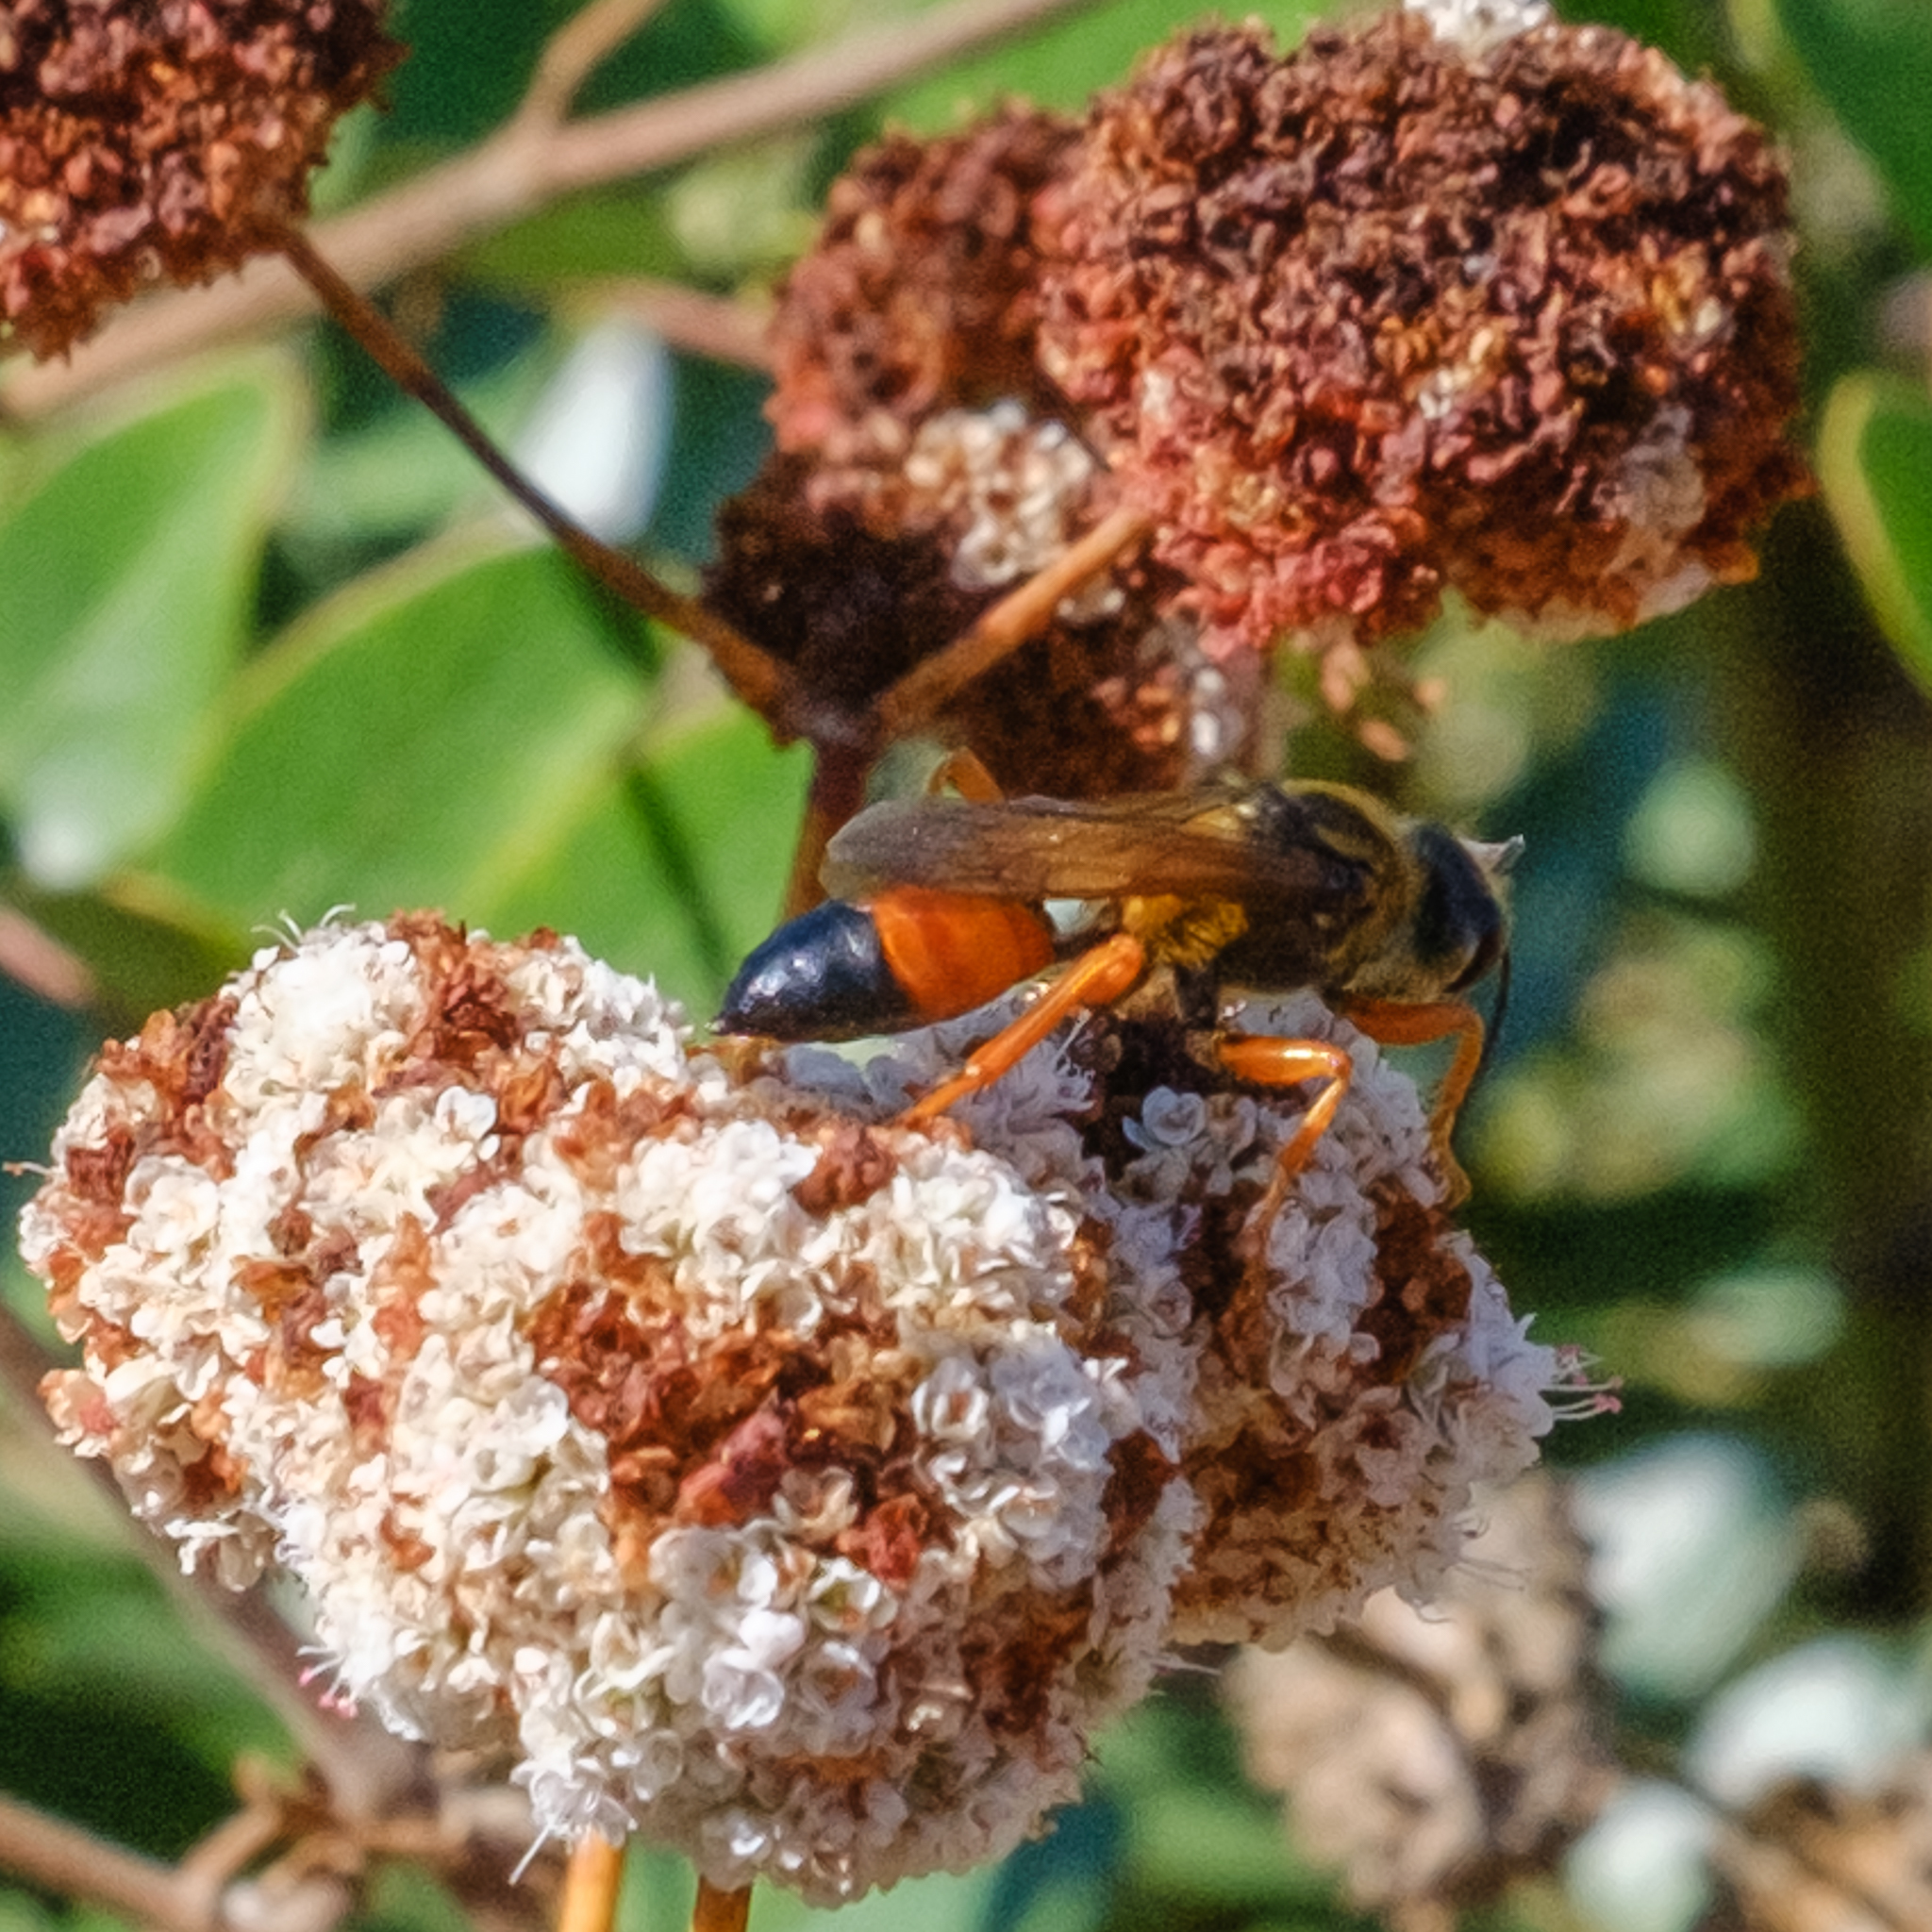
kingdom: Animalia
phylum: Arthropoda
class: Insecta
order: Hymenoptera
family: Sphecidae
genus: Sphex
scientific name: Sphex ichneumoneus
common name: Great golden digger wasp
